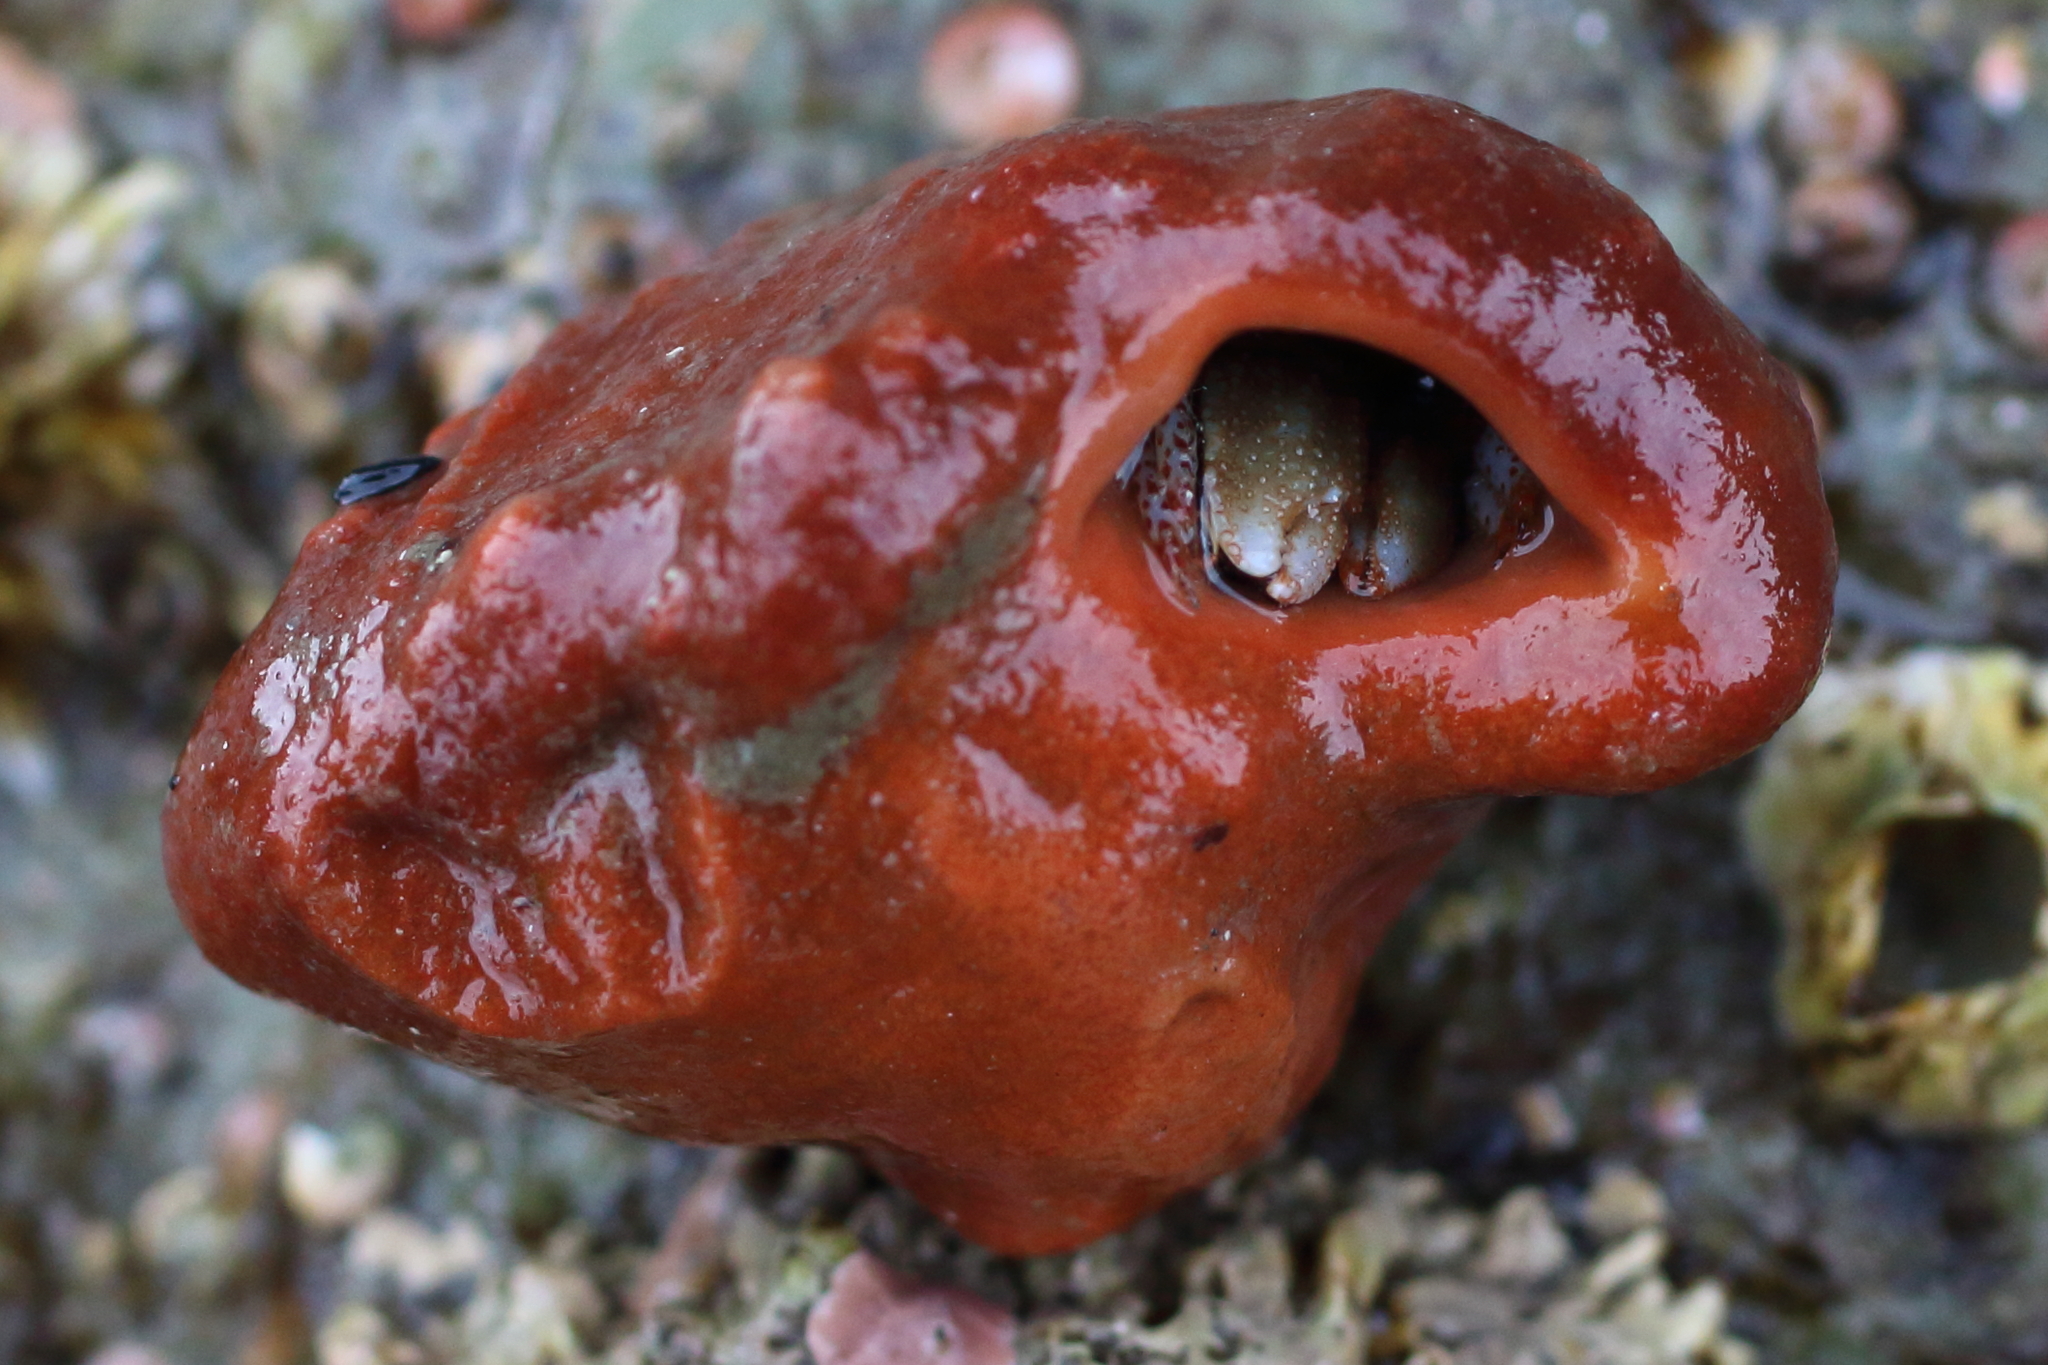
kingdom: Animalia
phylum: Porifera
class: Demospongiae
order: Suberitida
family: Suberitidae
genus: Suberites
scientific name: Suberites latus
